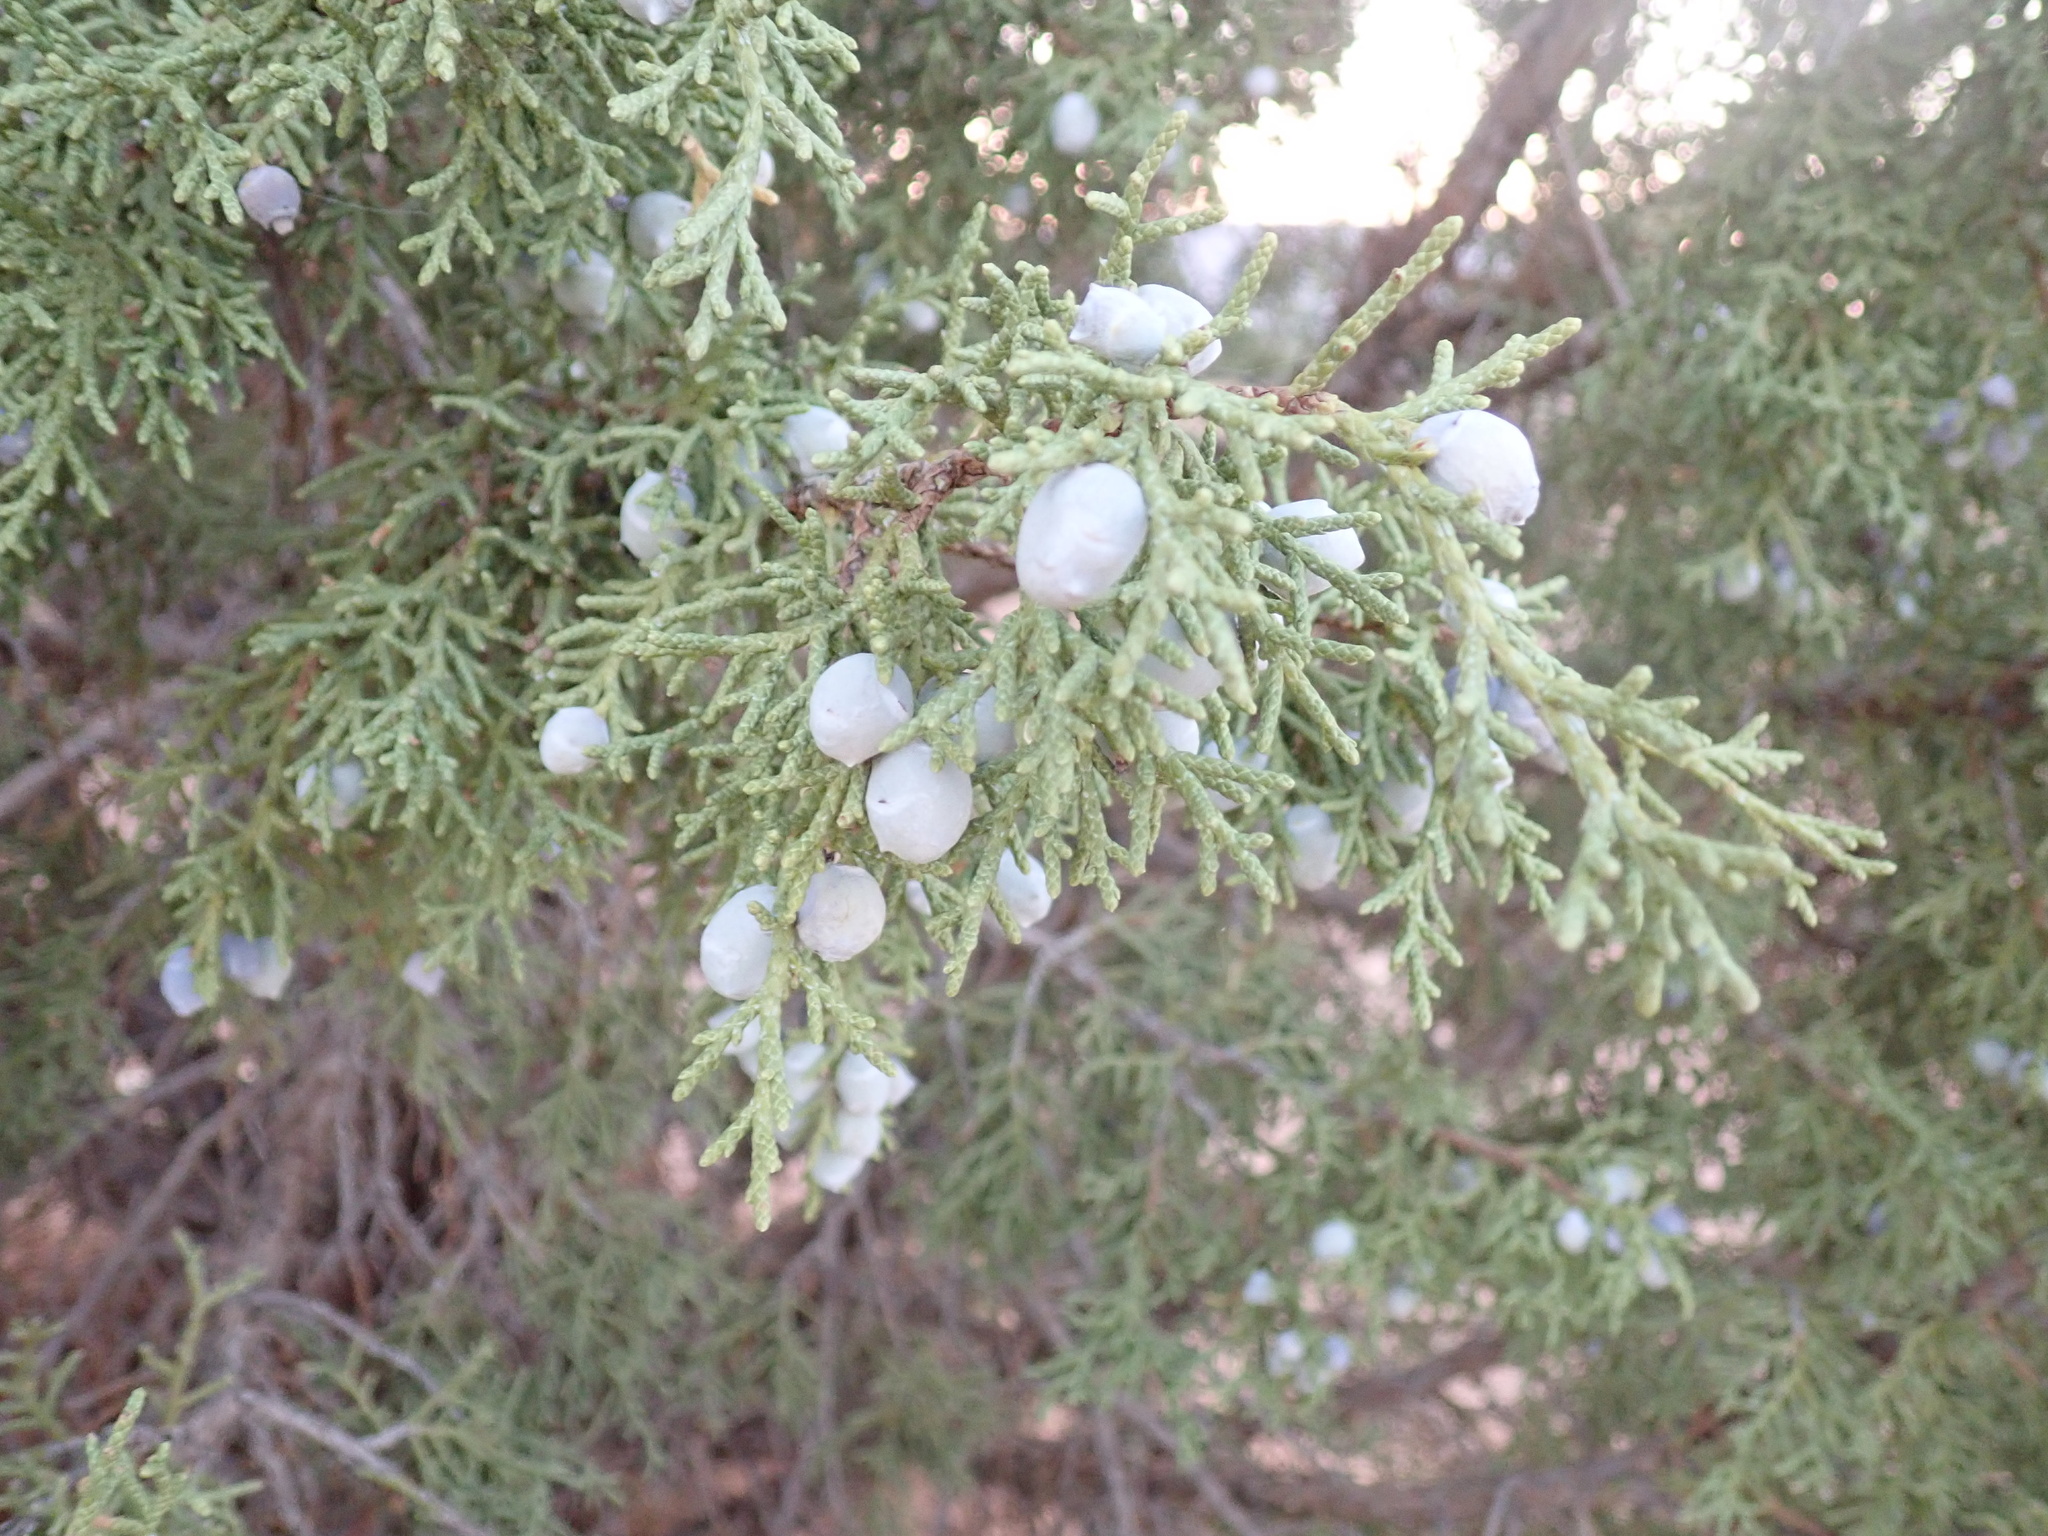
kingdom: Plantae
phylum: Tracheophyta
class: Pinopsida
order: Pinales
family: Cupressaceae
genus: Juniperus
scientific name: Juniperus osteosperma
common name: Utah juniper
